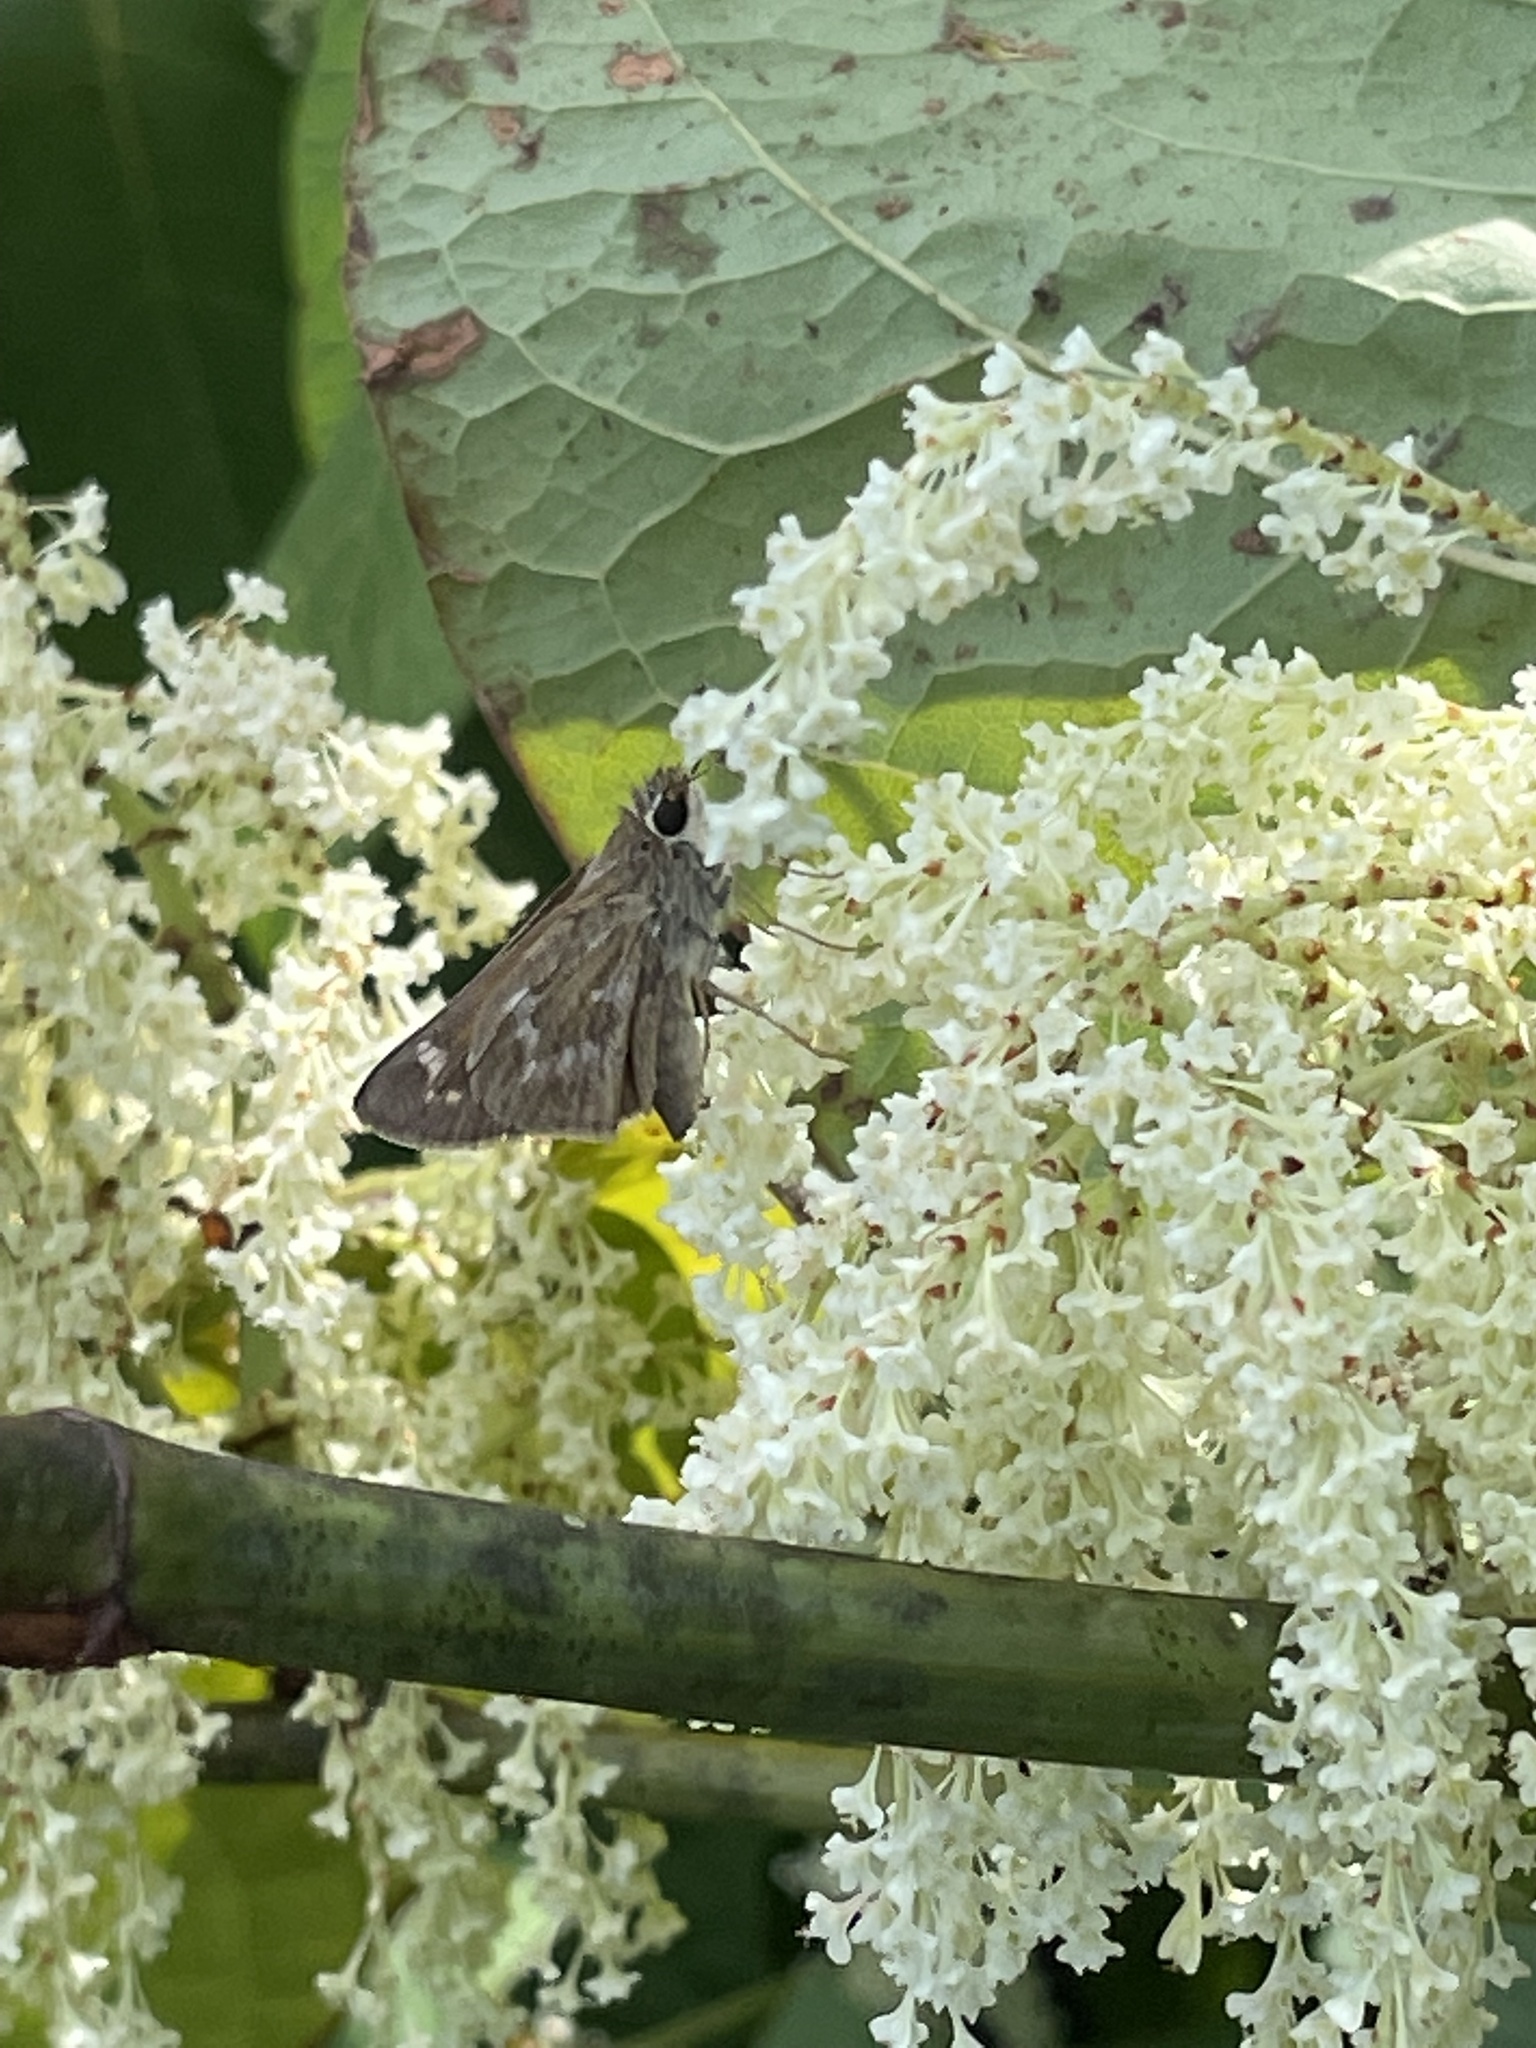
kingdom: Animalia
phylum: Arthropoda
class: Insecta
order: Lepidoptera
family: Hesperiidae
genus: Atalopedes
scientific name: Atalopedes
